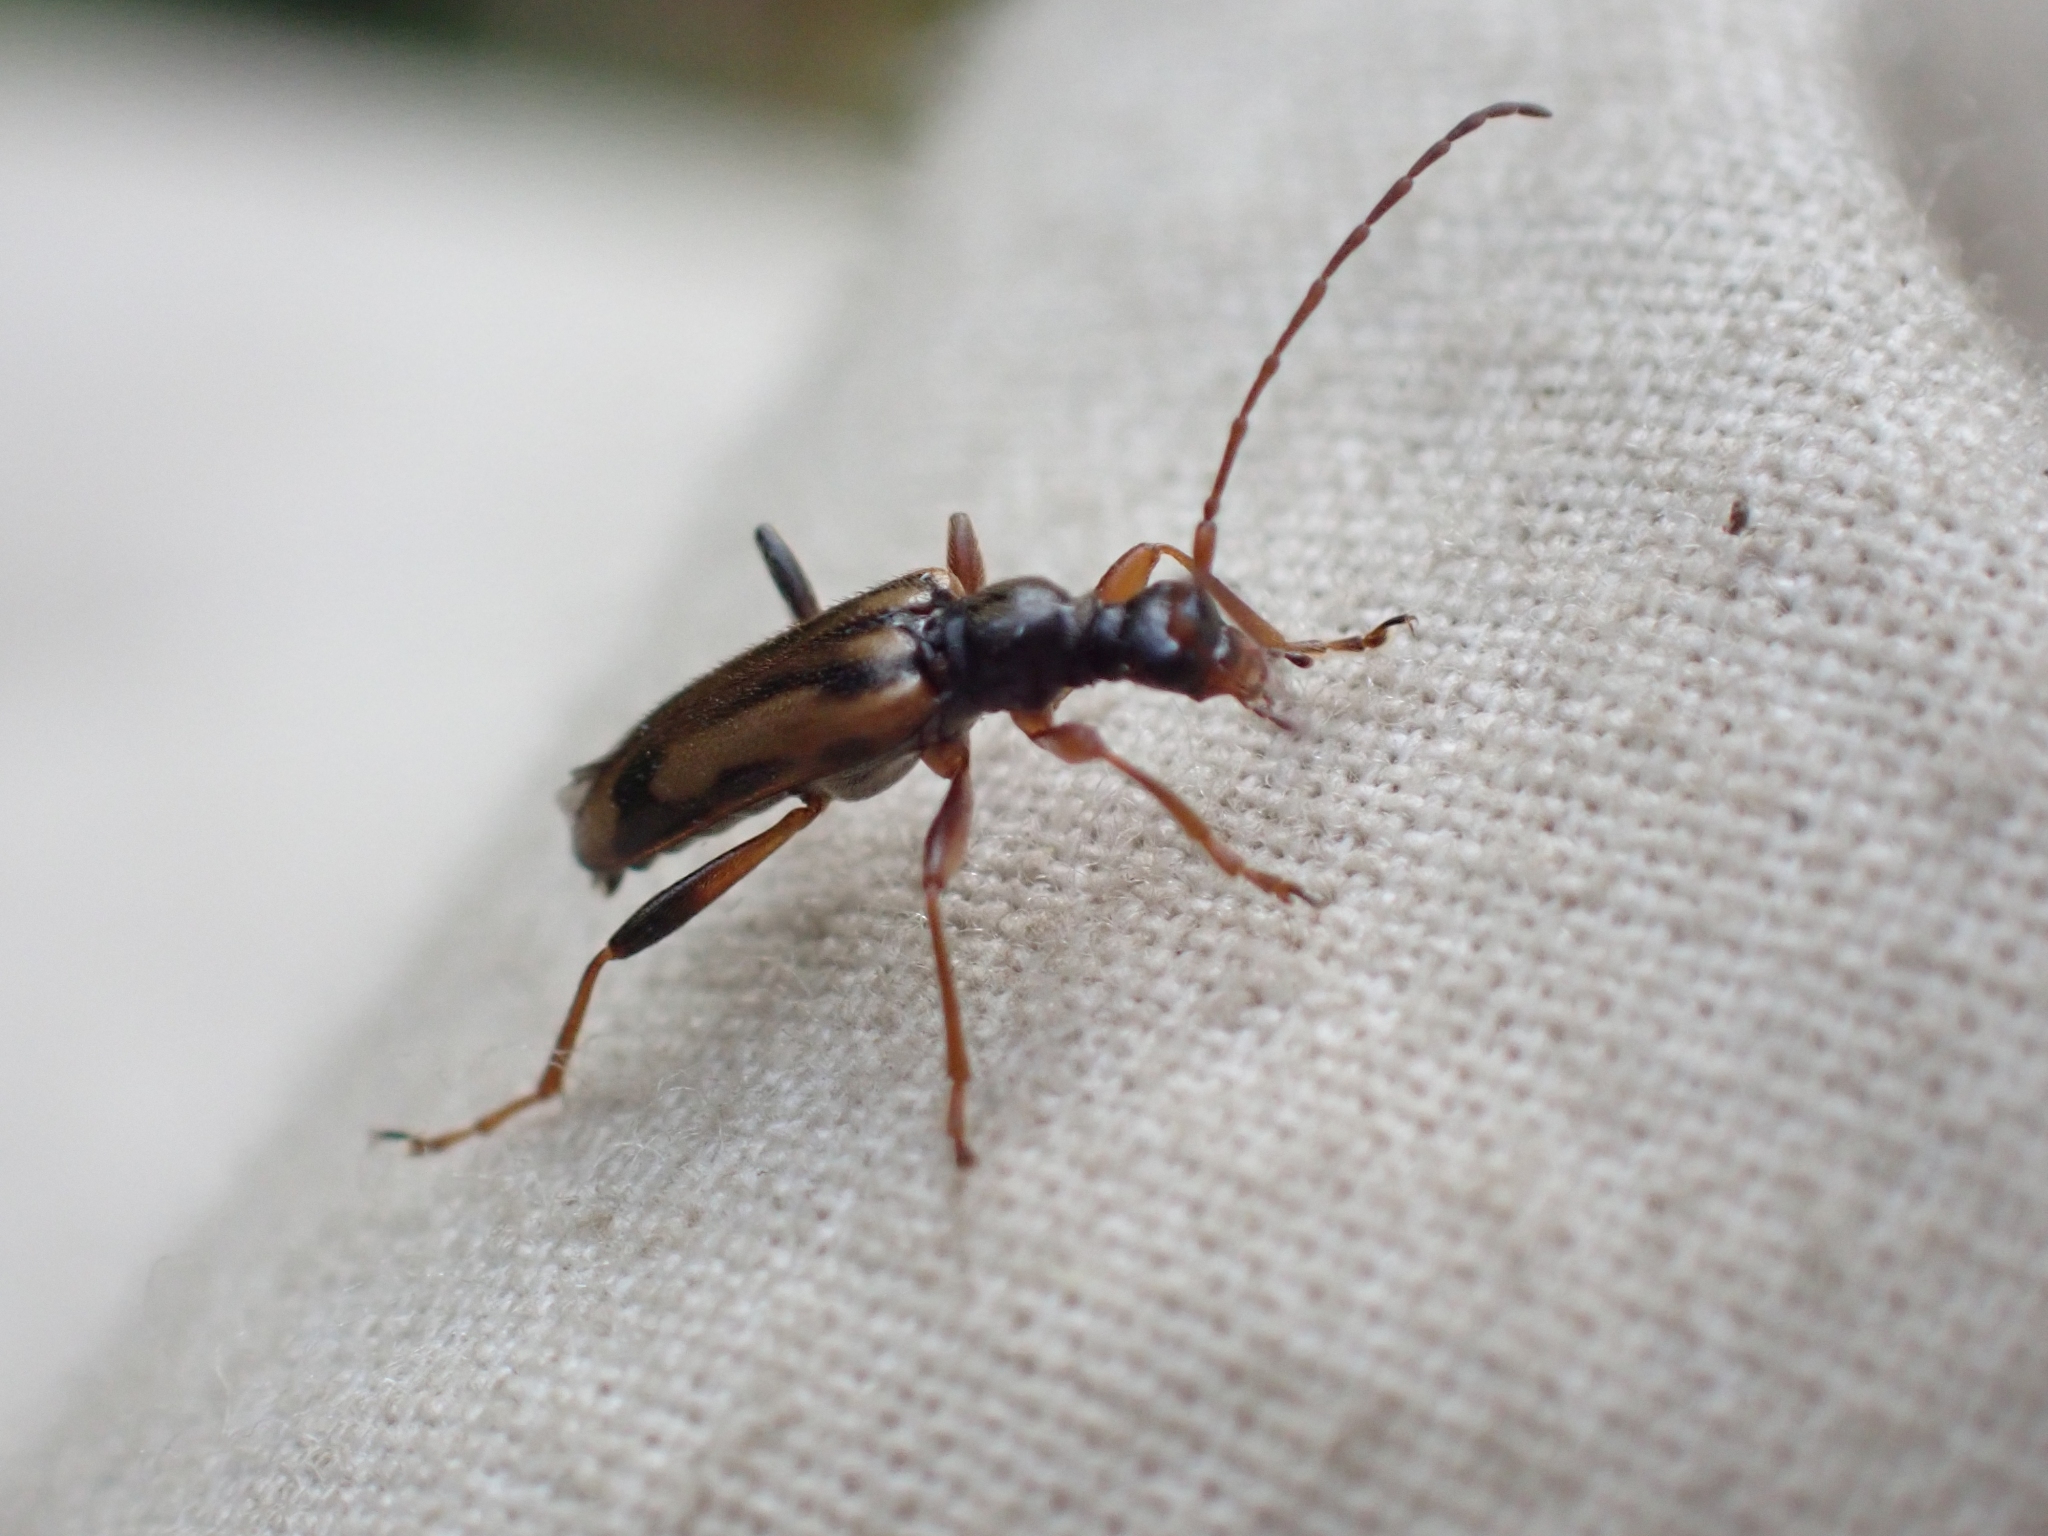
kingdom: Animalia
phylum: Arthropoda
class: Insecta
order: Coleoptera
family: Cerambycidae
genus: Pidonia
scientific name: Pidonia scripta
